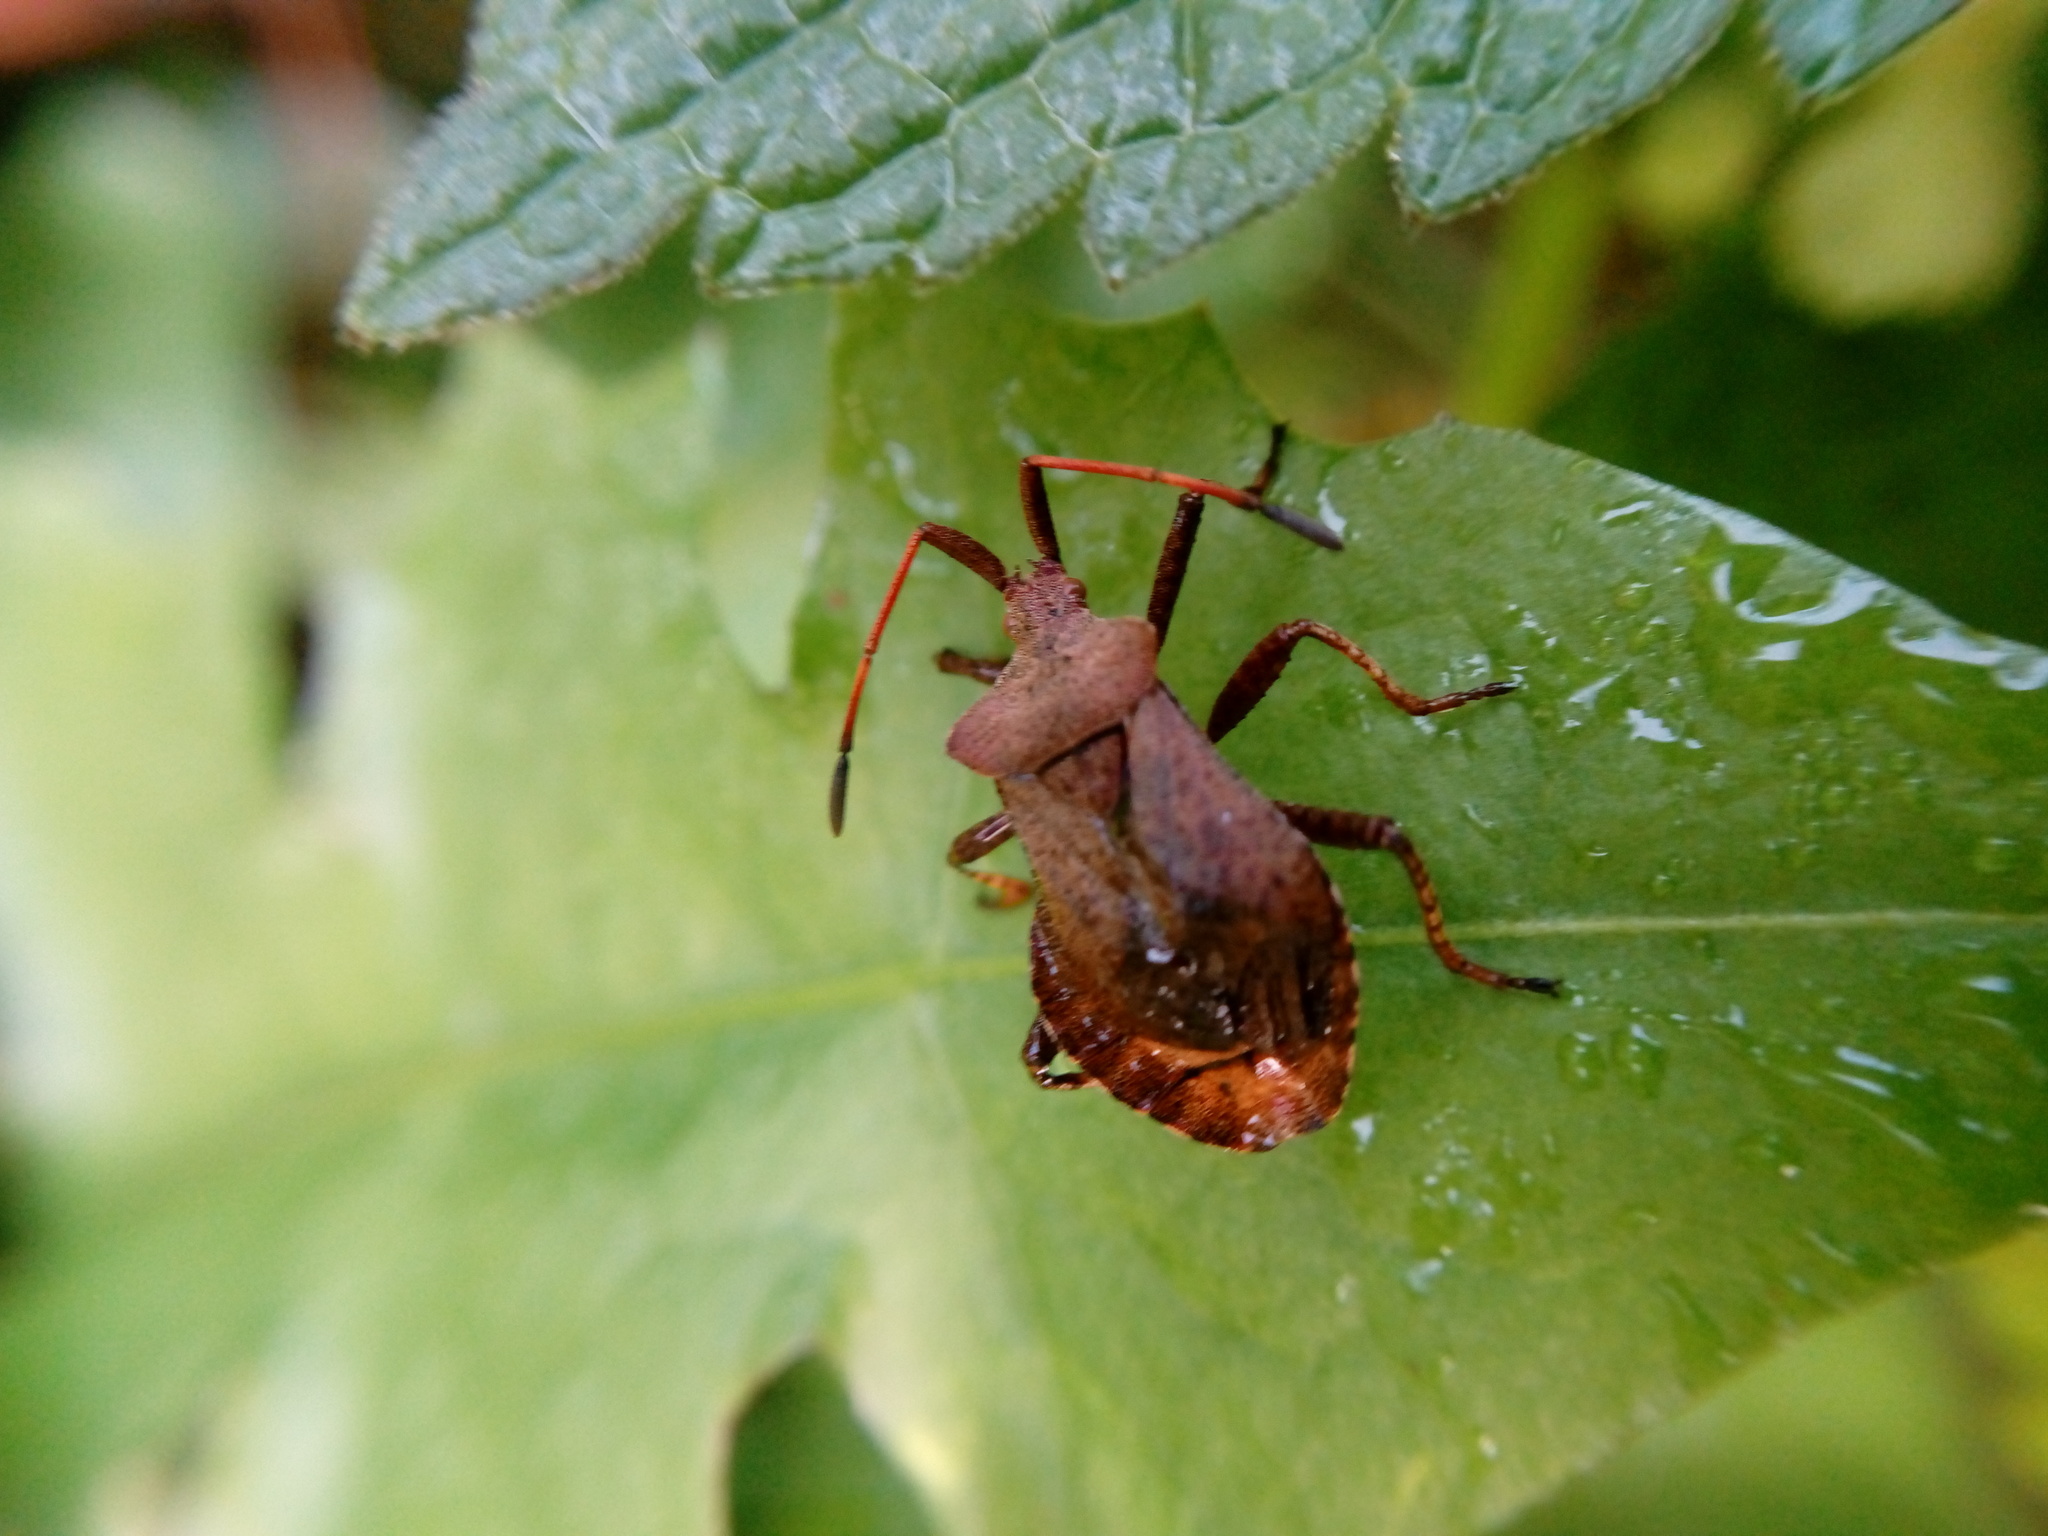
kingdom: Animalia
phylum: Arthropoda
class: Insecta
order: Hemiptera
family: Coreidae
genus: Coreus
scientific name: Coreus marginatus
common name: Dock bug
